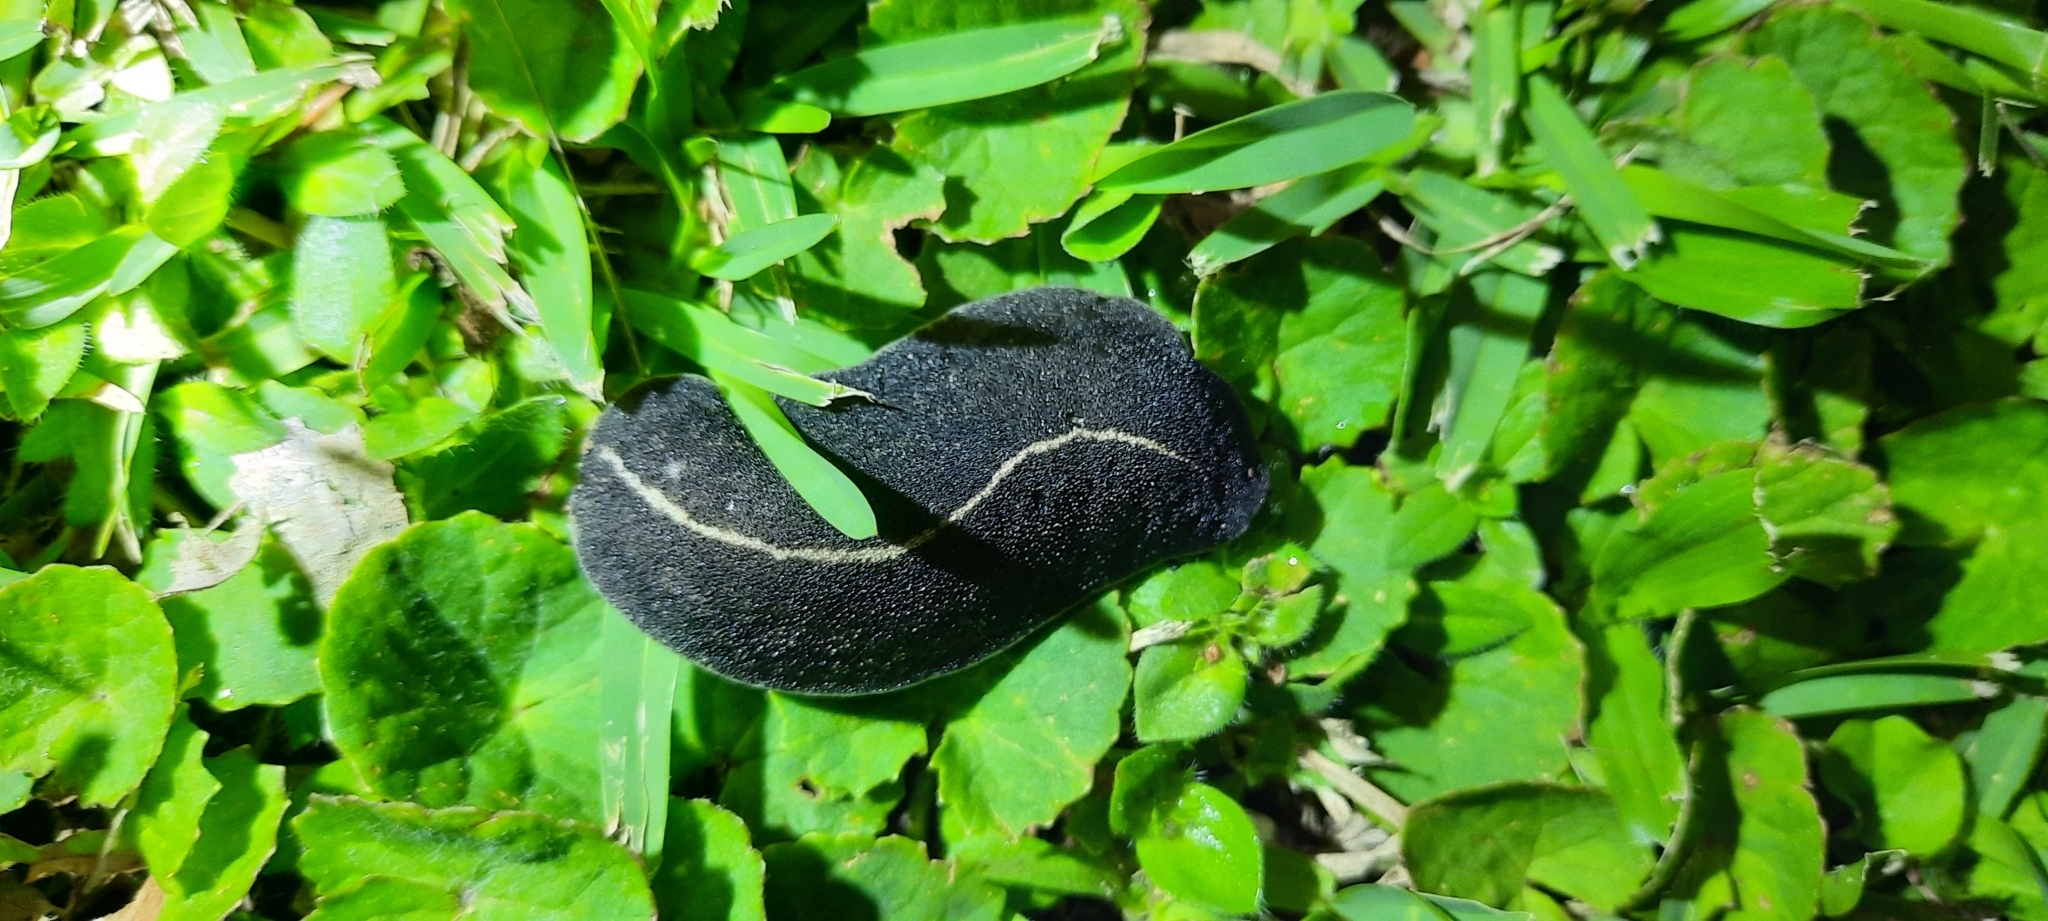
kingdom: Animalia
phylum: Mollusca
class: Gastropoda
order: Systellommatophora
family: Veronicellidae
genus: Laevicaulis
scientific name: Laevicaulis alte
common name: Tropical leatherleaf
